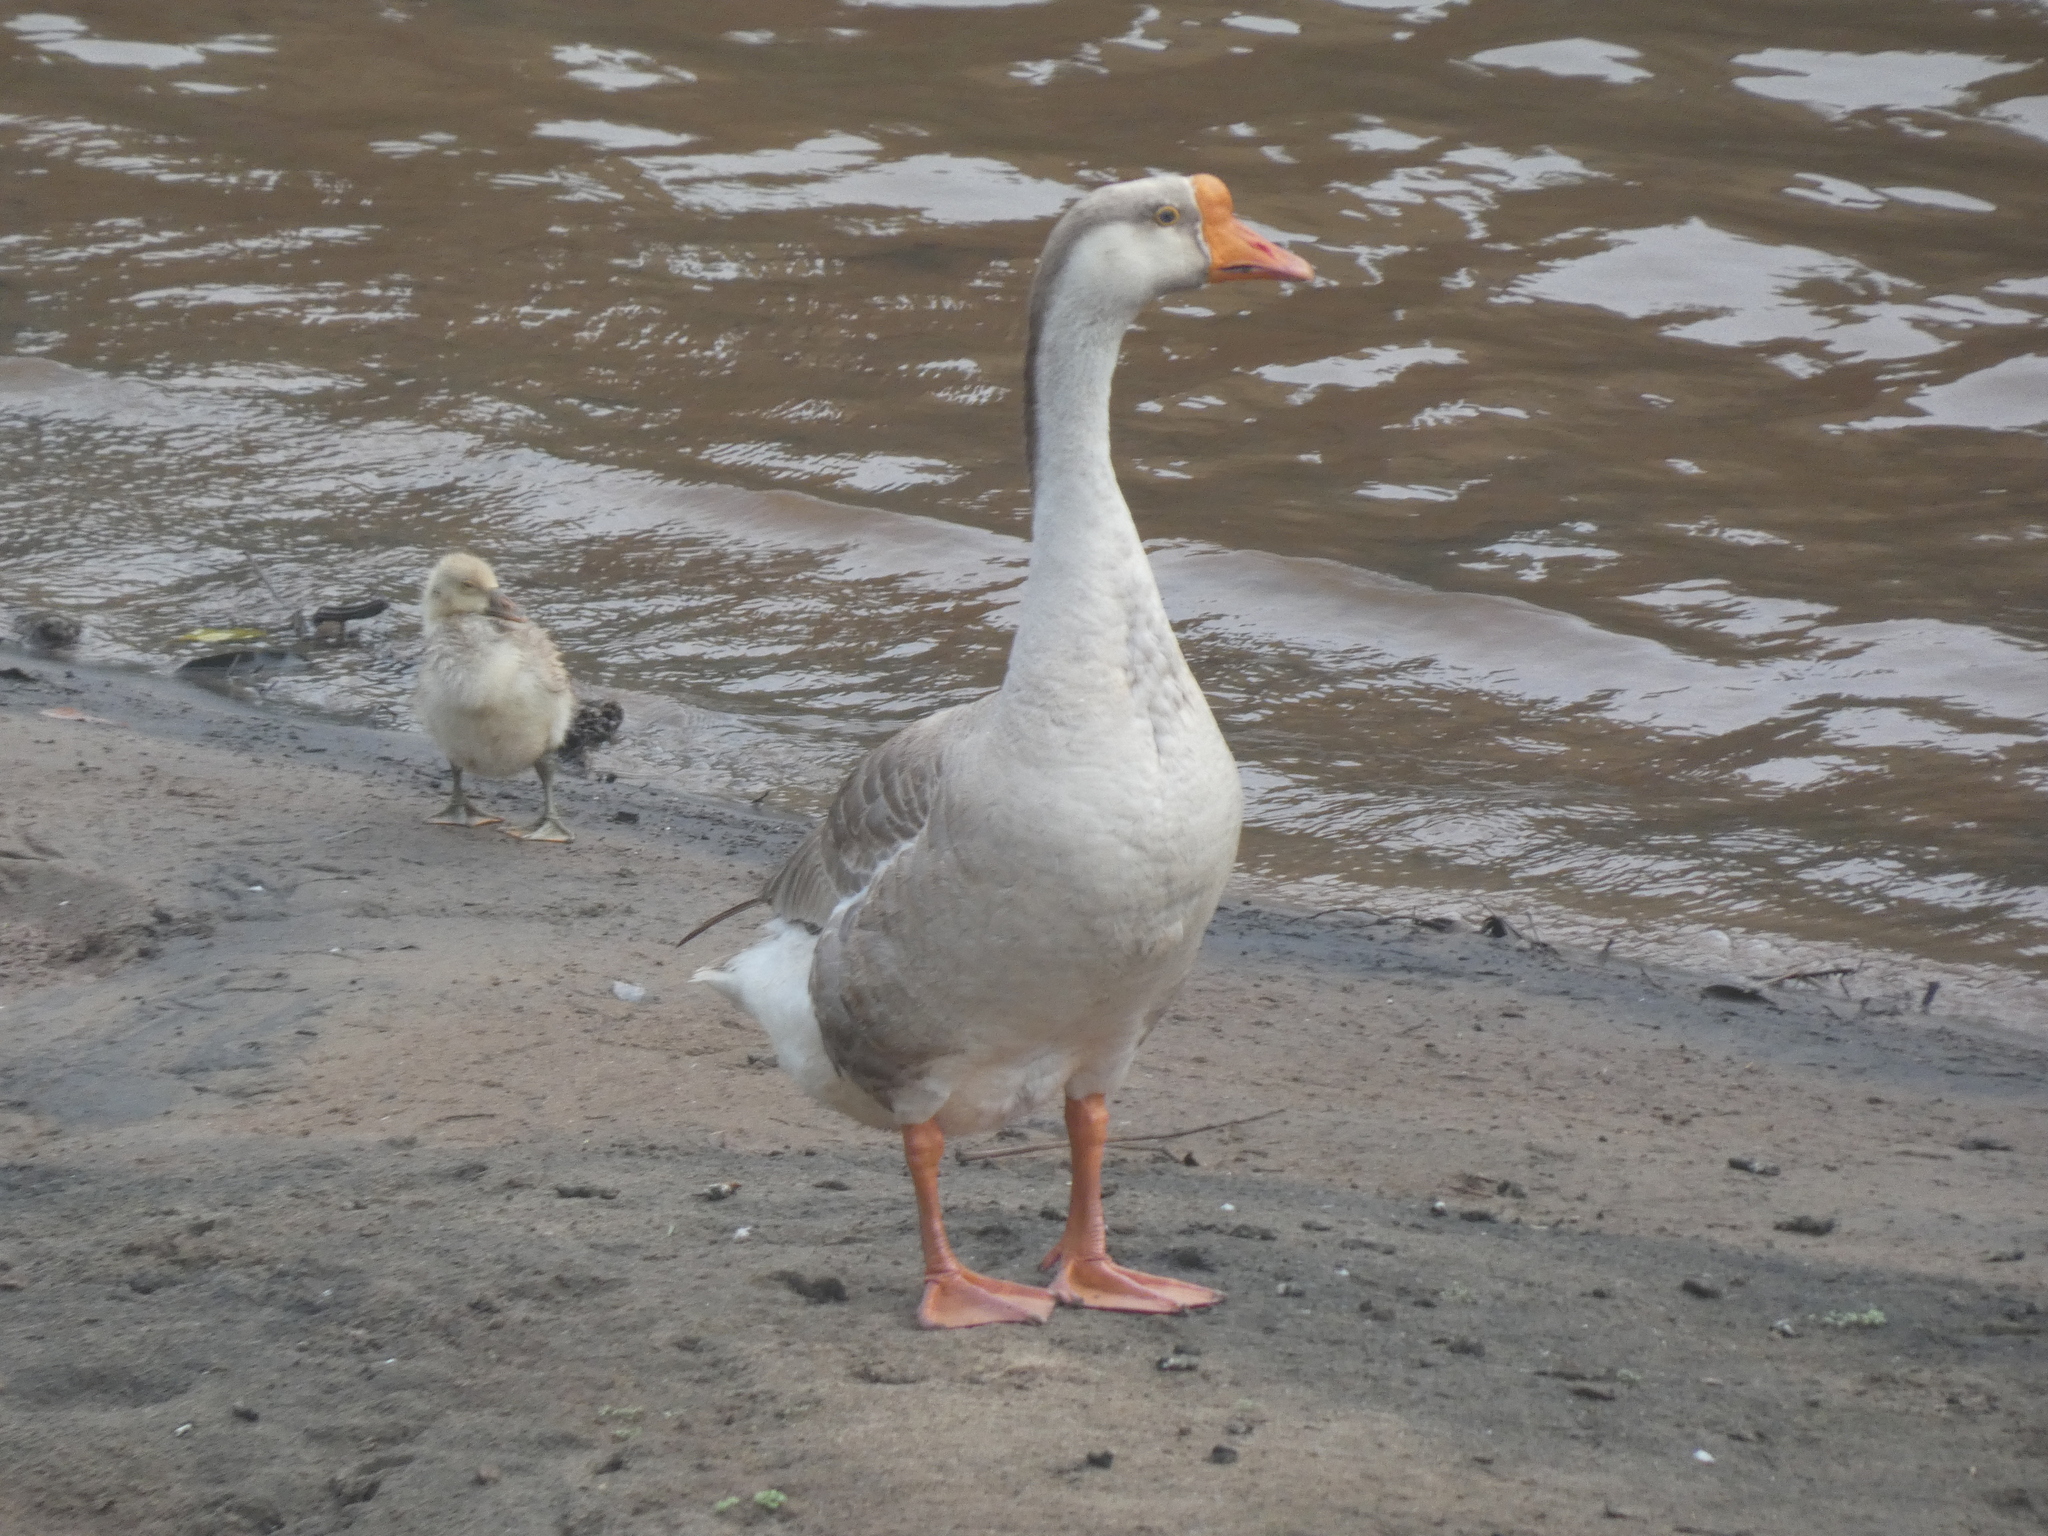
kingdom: Animalia
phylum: Chordata
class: Aves
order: Anseriformes
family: Anatidae
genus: Anser
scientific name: Anser cygnoides
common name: Swan goose
